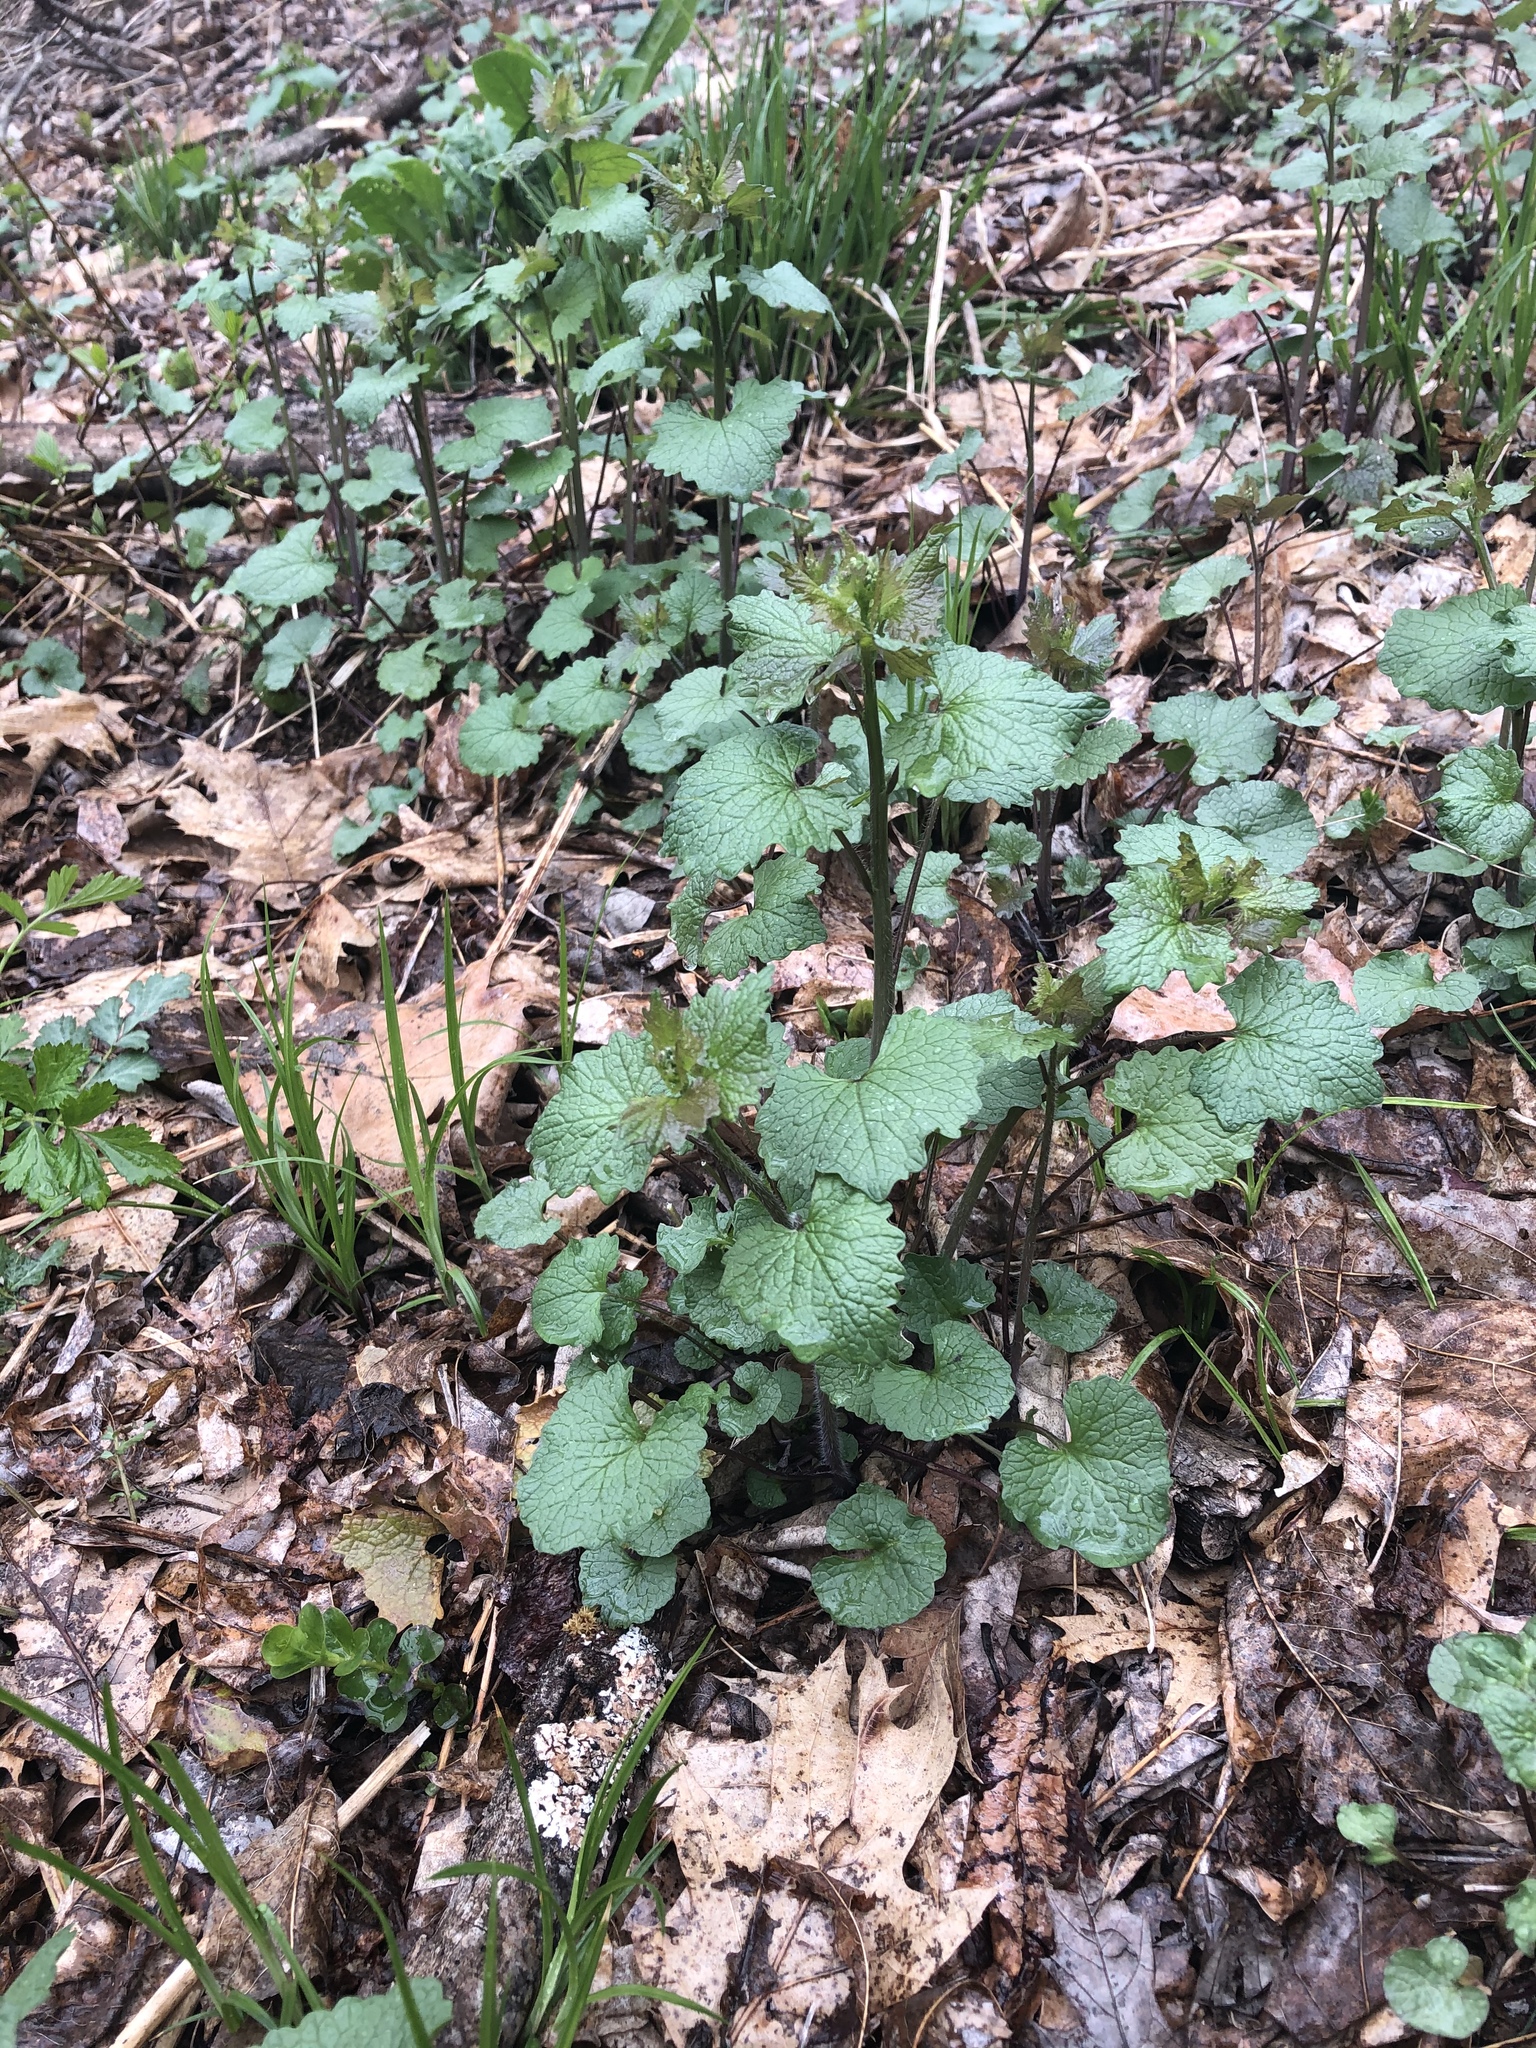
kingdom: Plantae
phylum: Tracheophyta
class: Magnoliopsida
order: Brassicales
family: Brassicaceae
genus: Alliaria
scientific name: Alliaria petiolata
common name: Garlic mustard
